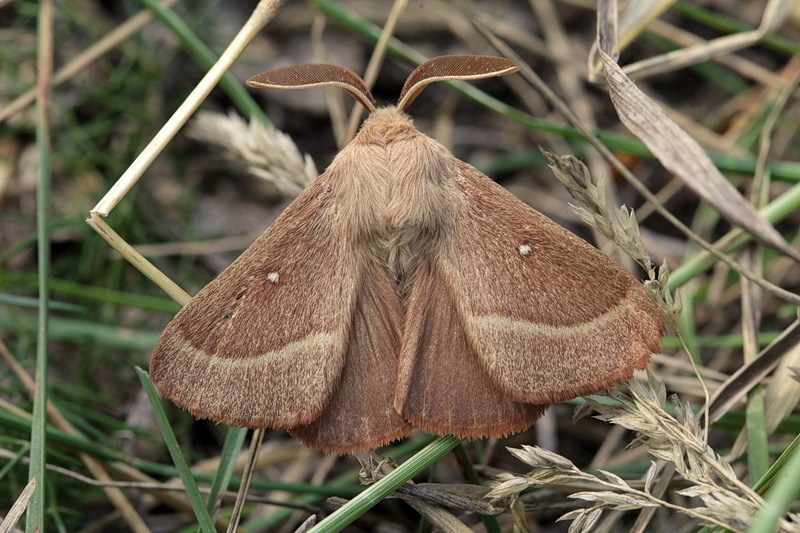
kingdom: Animalia
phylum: Arthropoda
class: Insecta
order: Lepidoptera
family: Lasiocampidae
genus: Lasiocampa
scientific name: Lasiocampa trifolii
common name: Grass eggar
